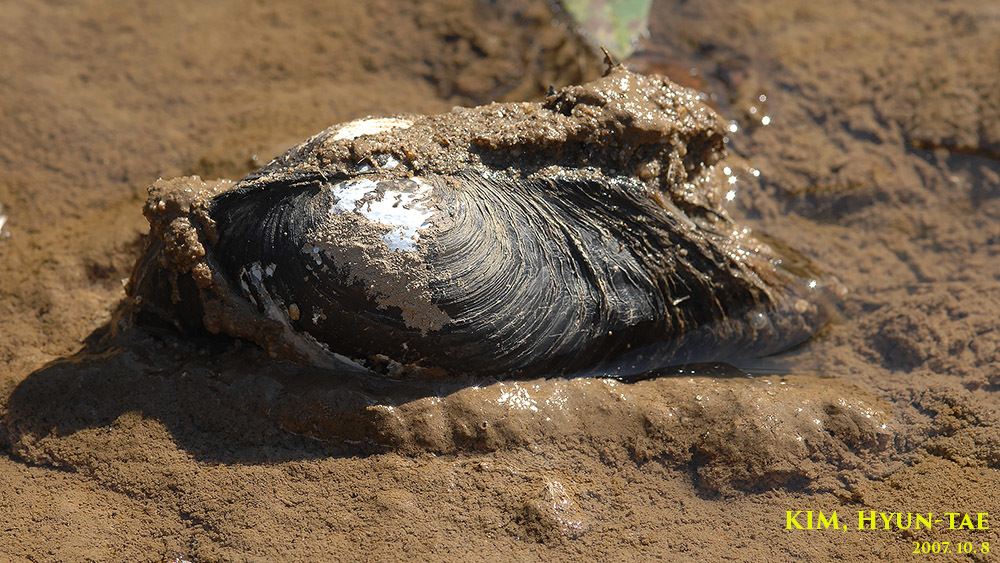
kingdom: Animalia
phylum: Mollusca
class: Bivalvia
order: Unionida
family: Unionidae
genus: Sinanodonta
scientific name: Sinanodonta schrenkii
